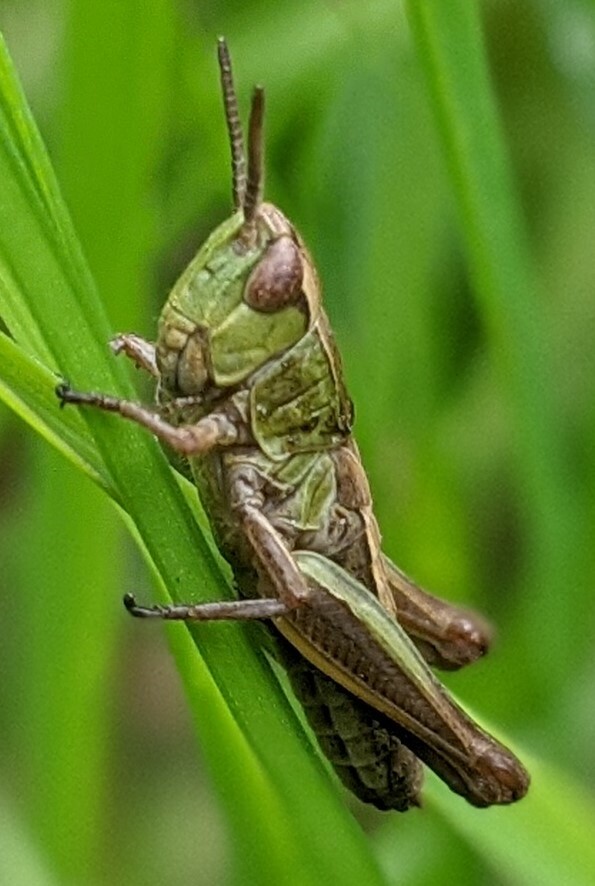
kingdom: Animalia
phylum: Arthropoda
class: Insecta
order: Orthoptera
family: Acrididae
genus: Pseudochorthippus
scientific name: Pseudochorthippus parallelus
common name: Meadow grasshopper
